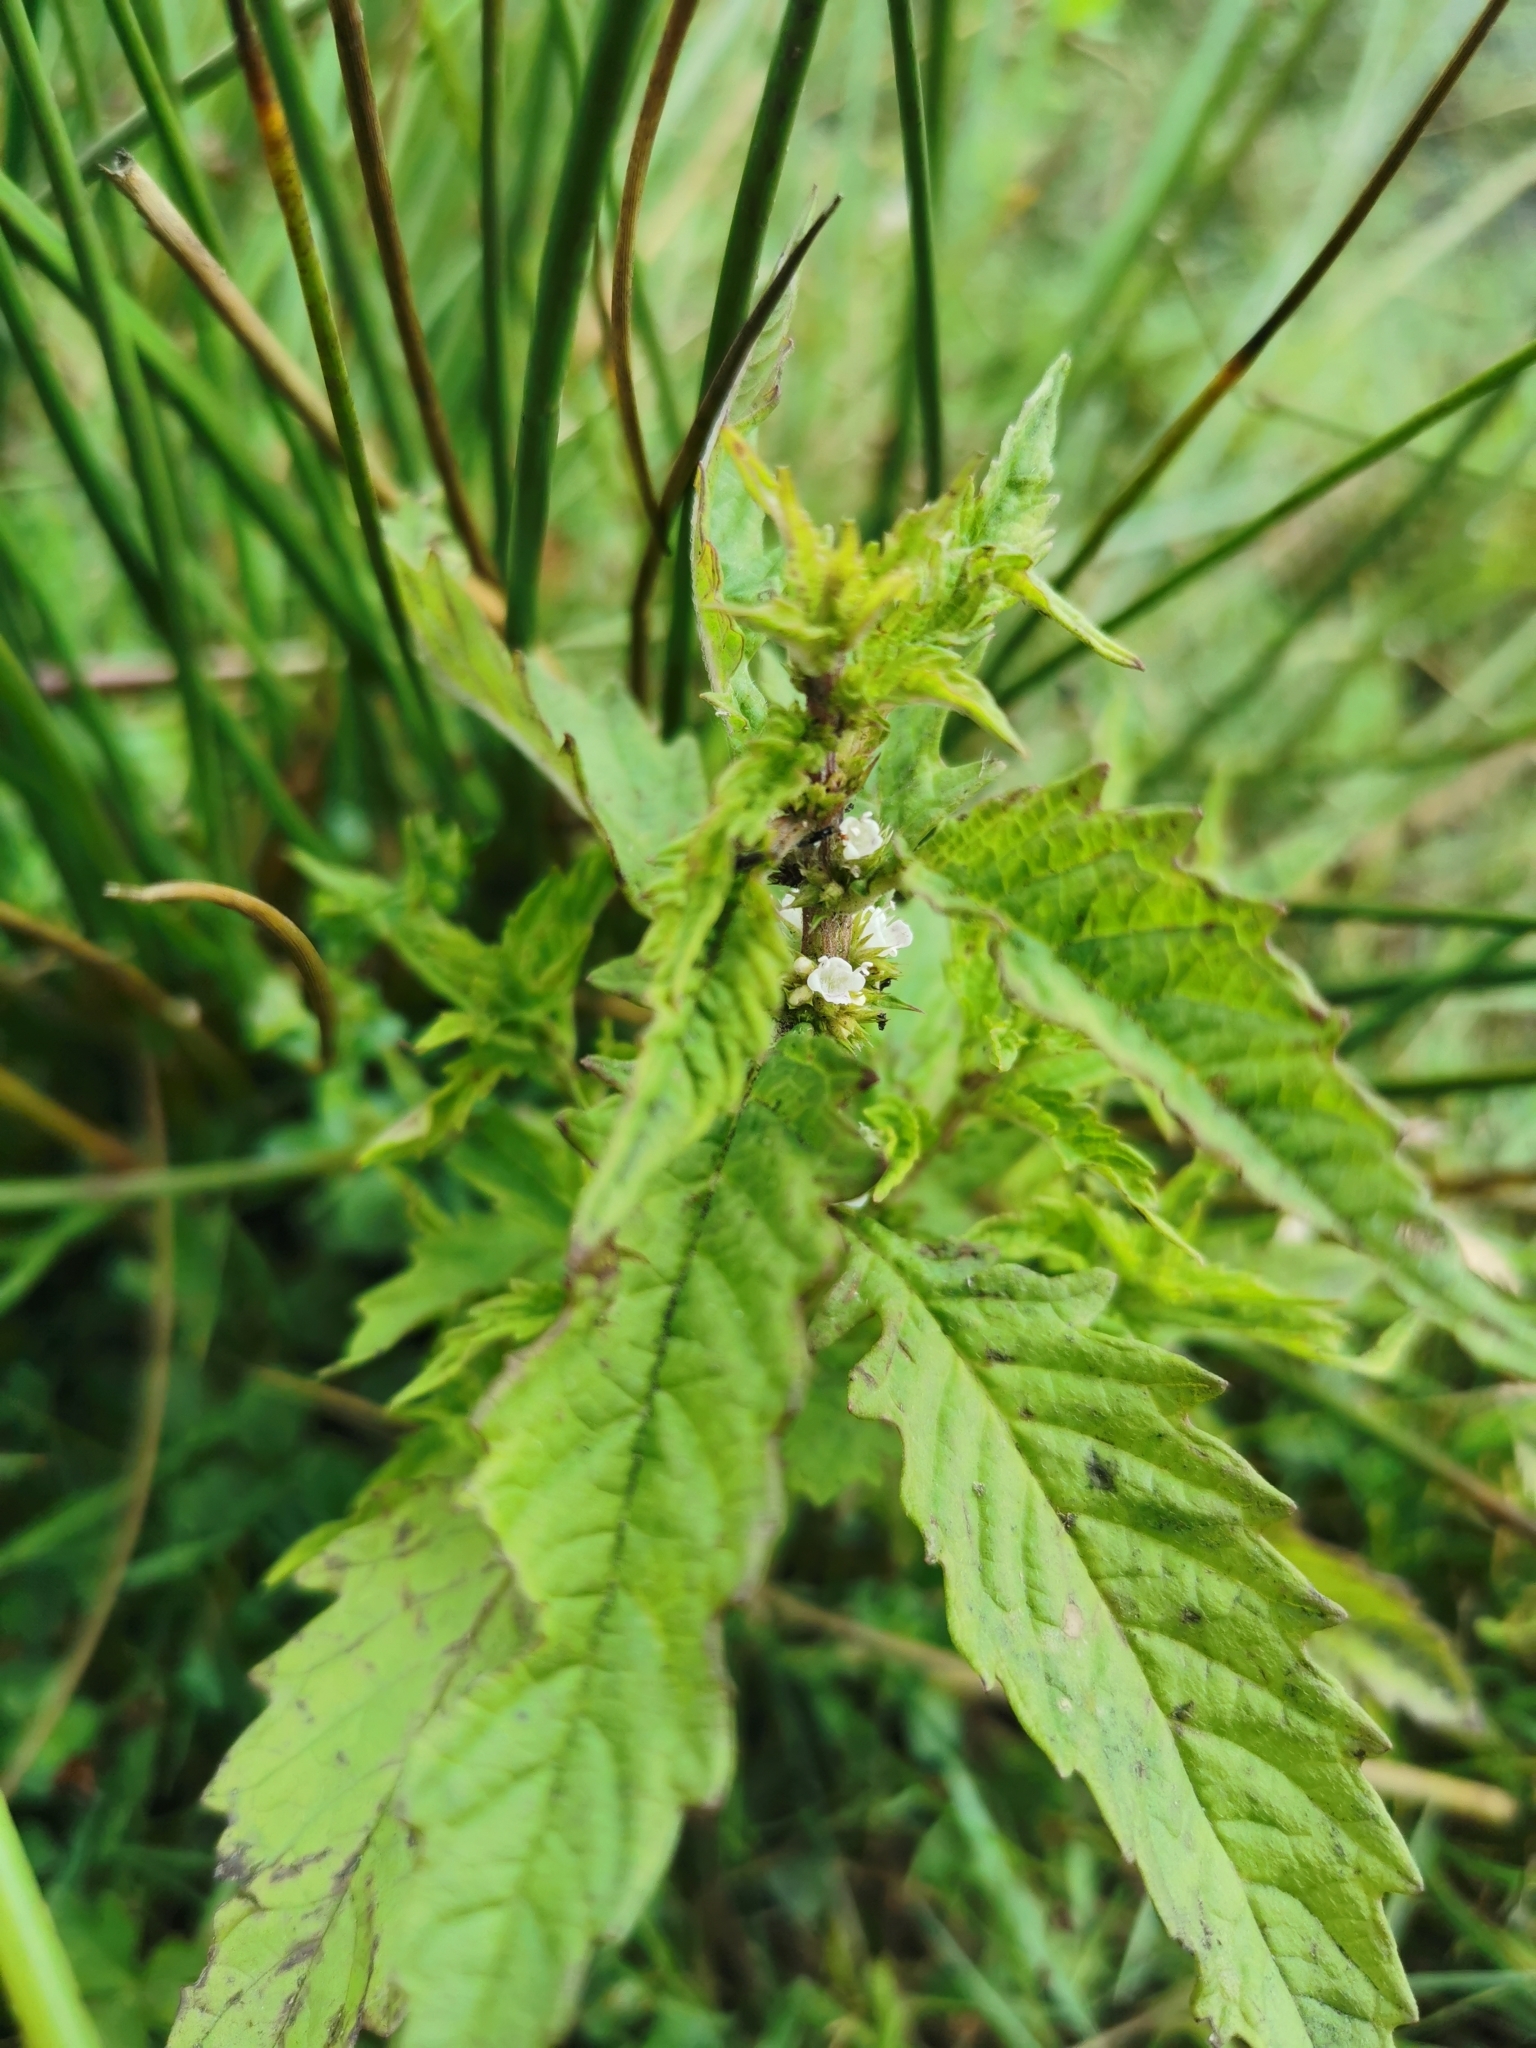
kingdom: Plantae
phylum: Tracheophyta
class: Magnoliopsida
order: Lamiales
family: Lamiaceae
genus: Lycopus
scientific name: Lycopus europaeus
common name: European bugleweed
